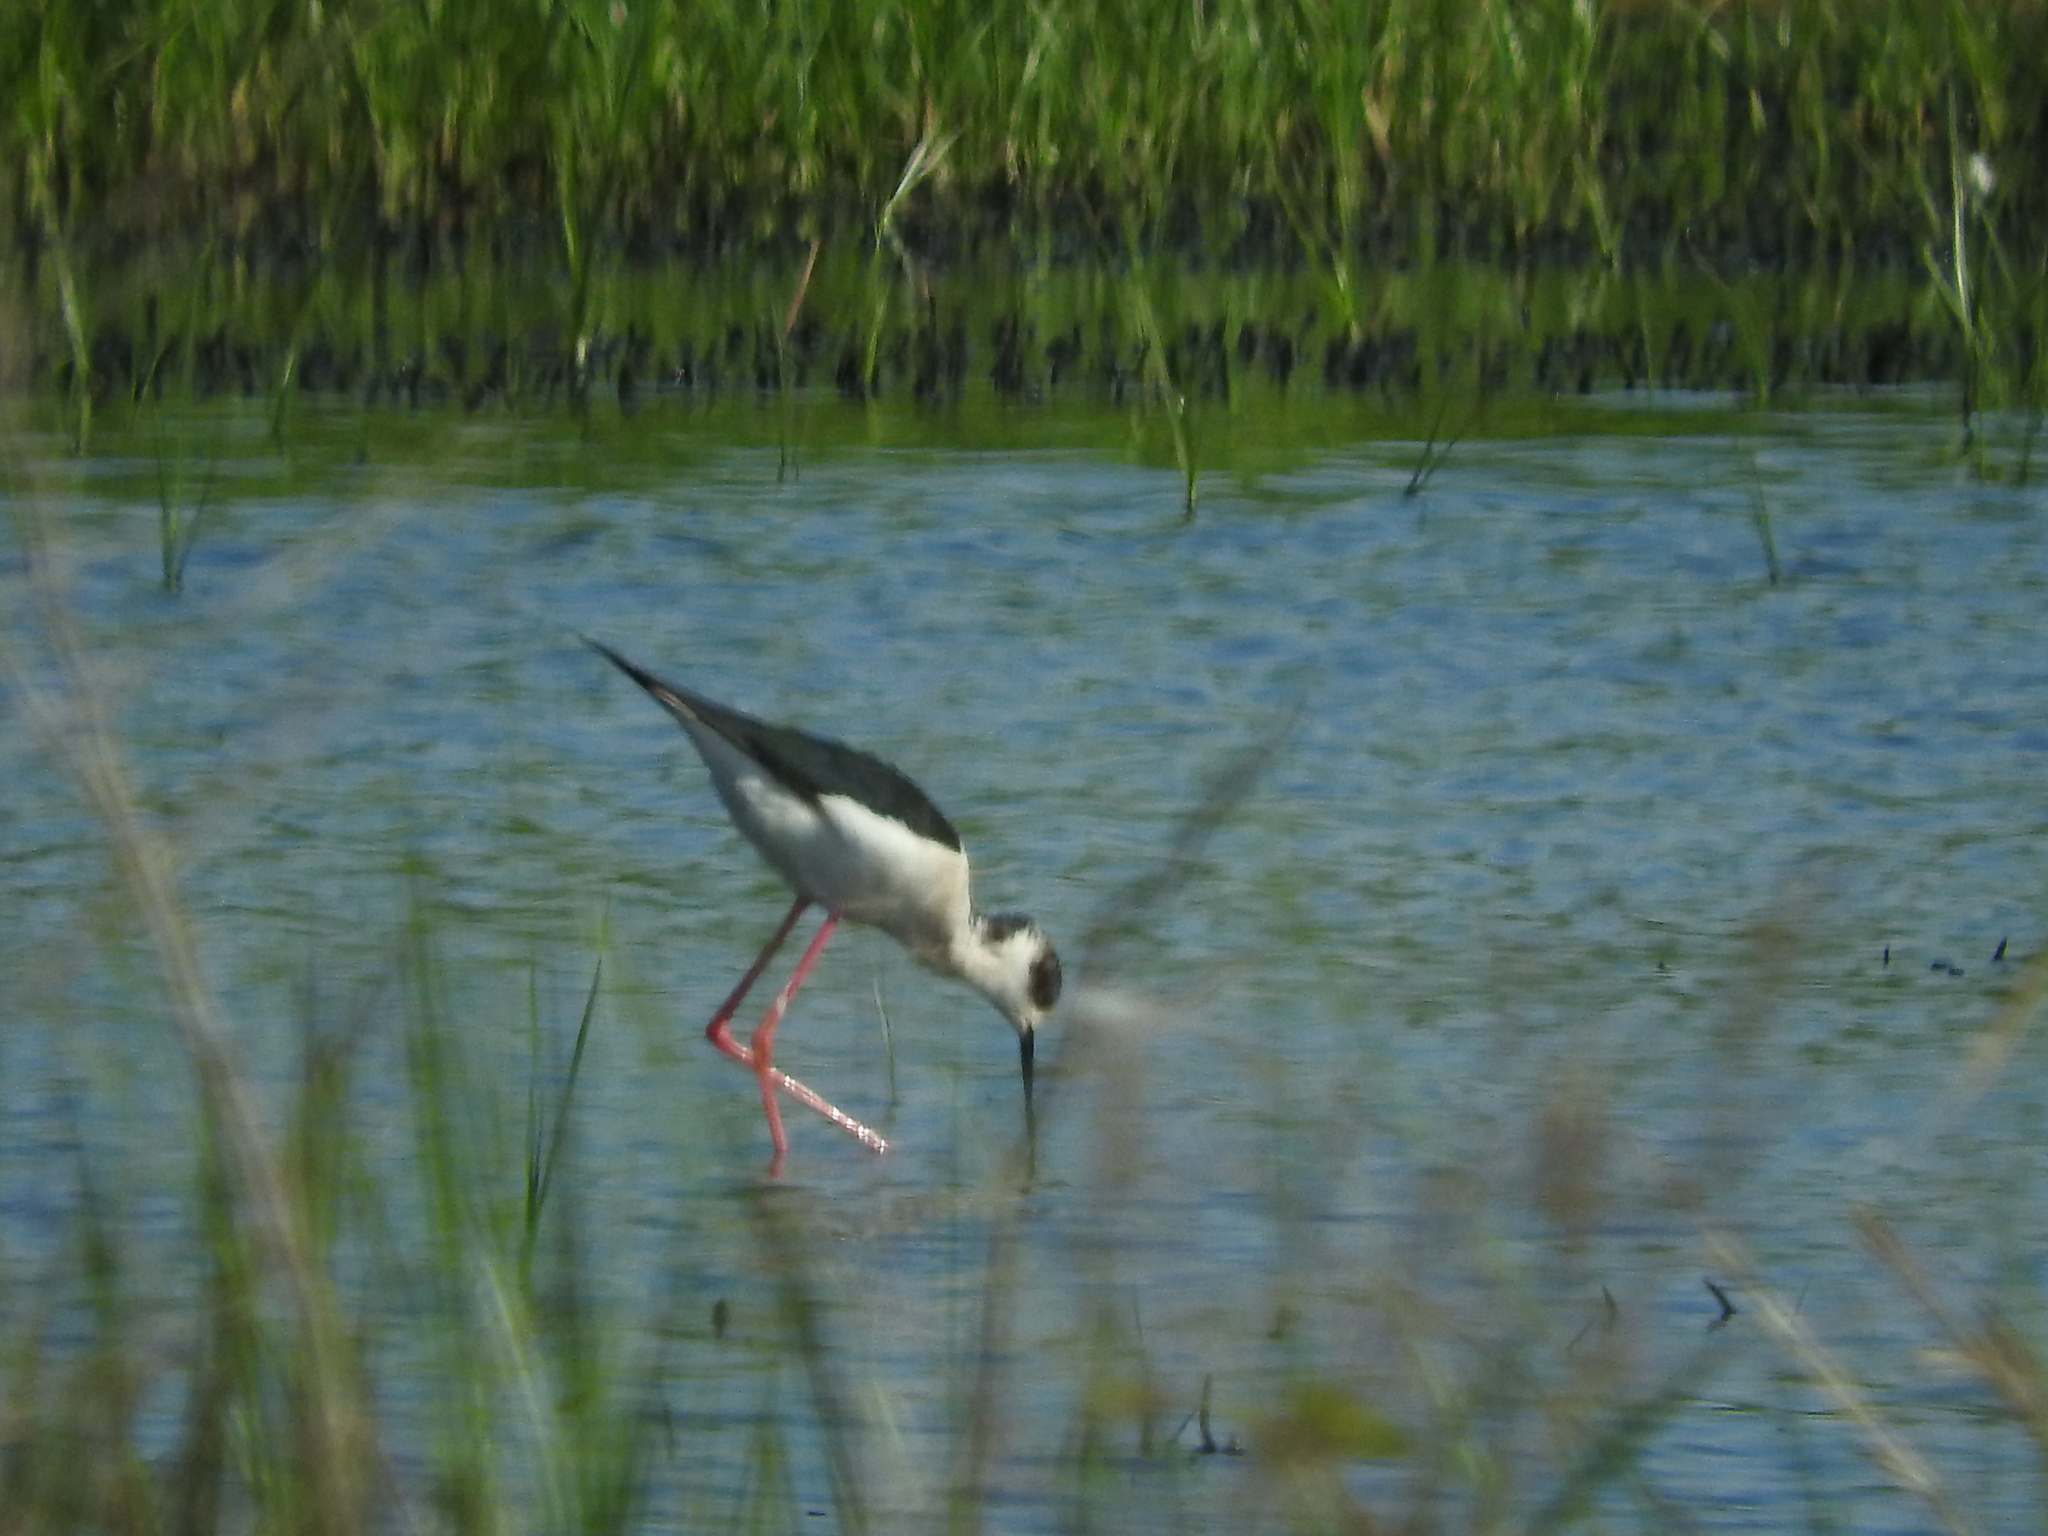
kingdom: Animalia
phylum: Chordata
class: Aves
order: Charadriiformes
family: Recurvirostridae
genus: Himantopus
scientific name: Himantopus himantopus
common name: Black-winged stilt
